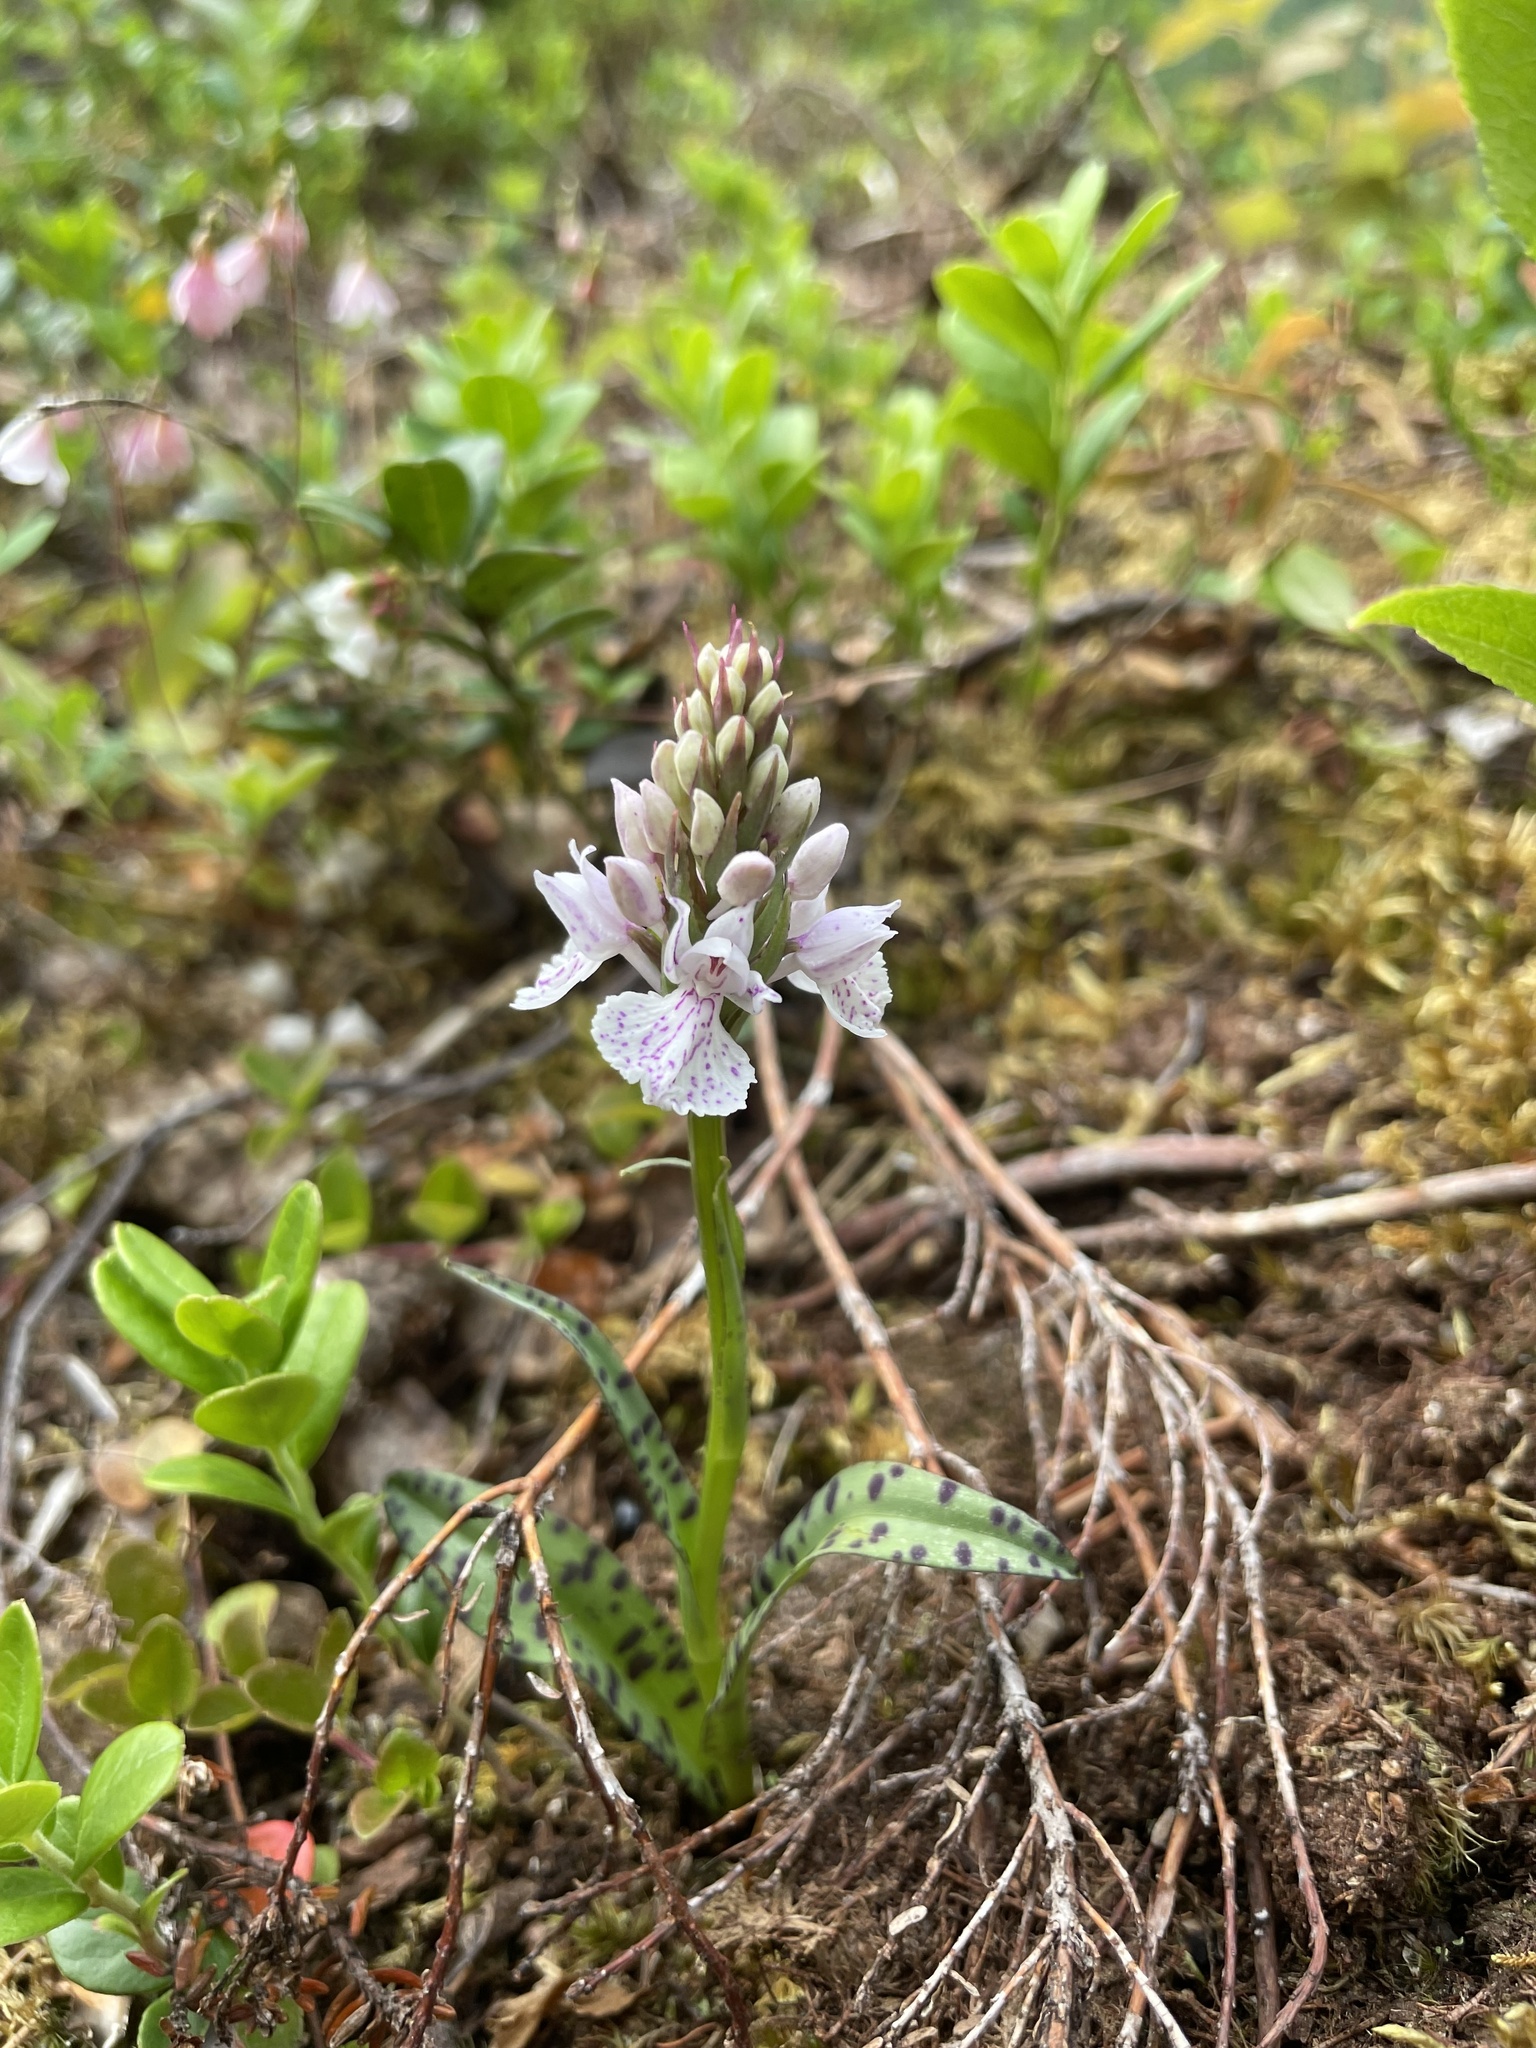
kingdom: Plantae
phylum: Tracheophyta
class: Liliopsida
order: Asparagales
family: Orchidaceae
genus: Dactylorhiza
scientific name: Dactylorhiza maculata
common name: Heath spotted-orchid
